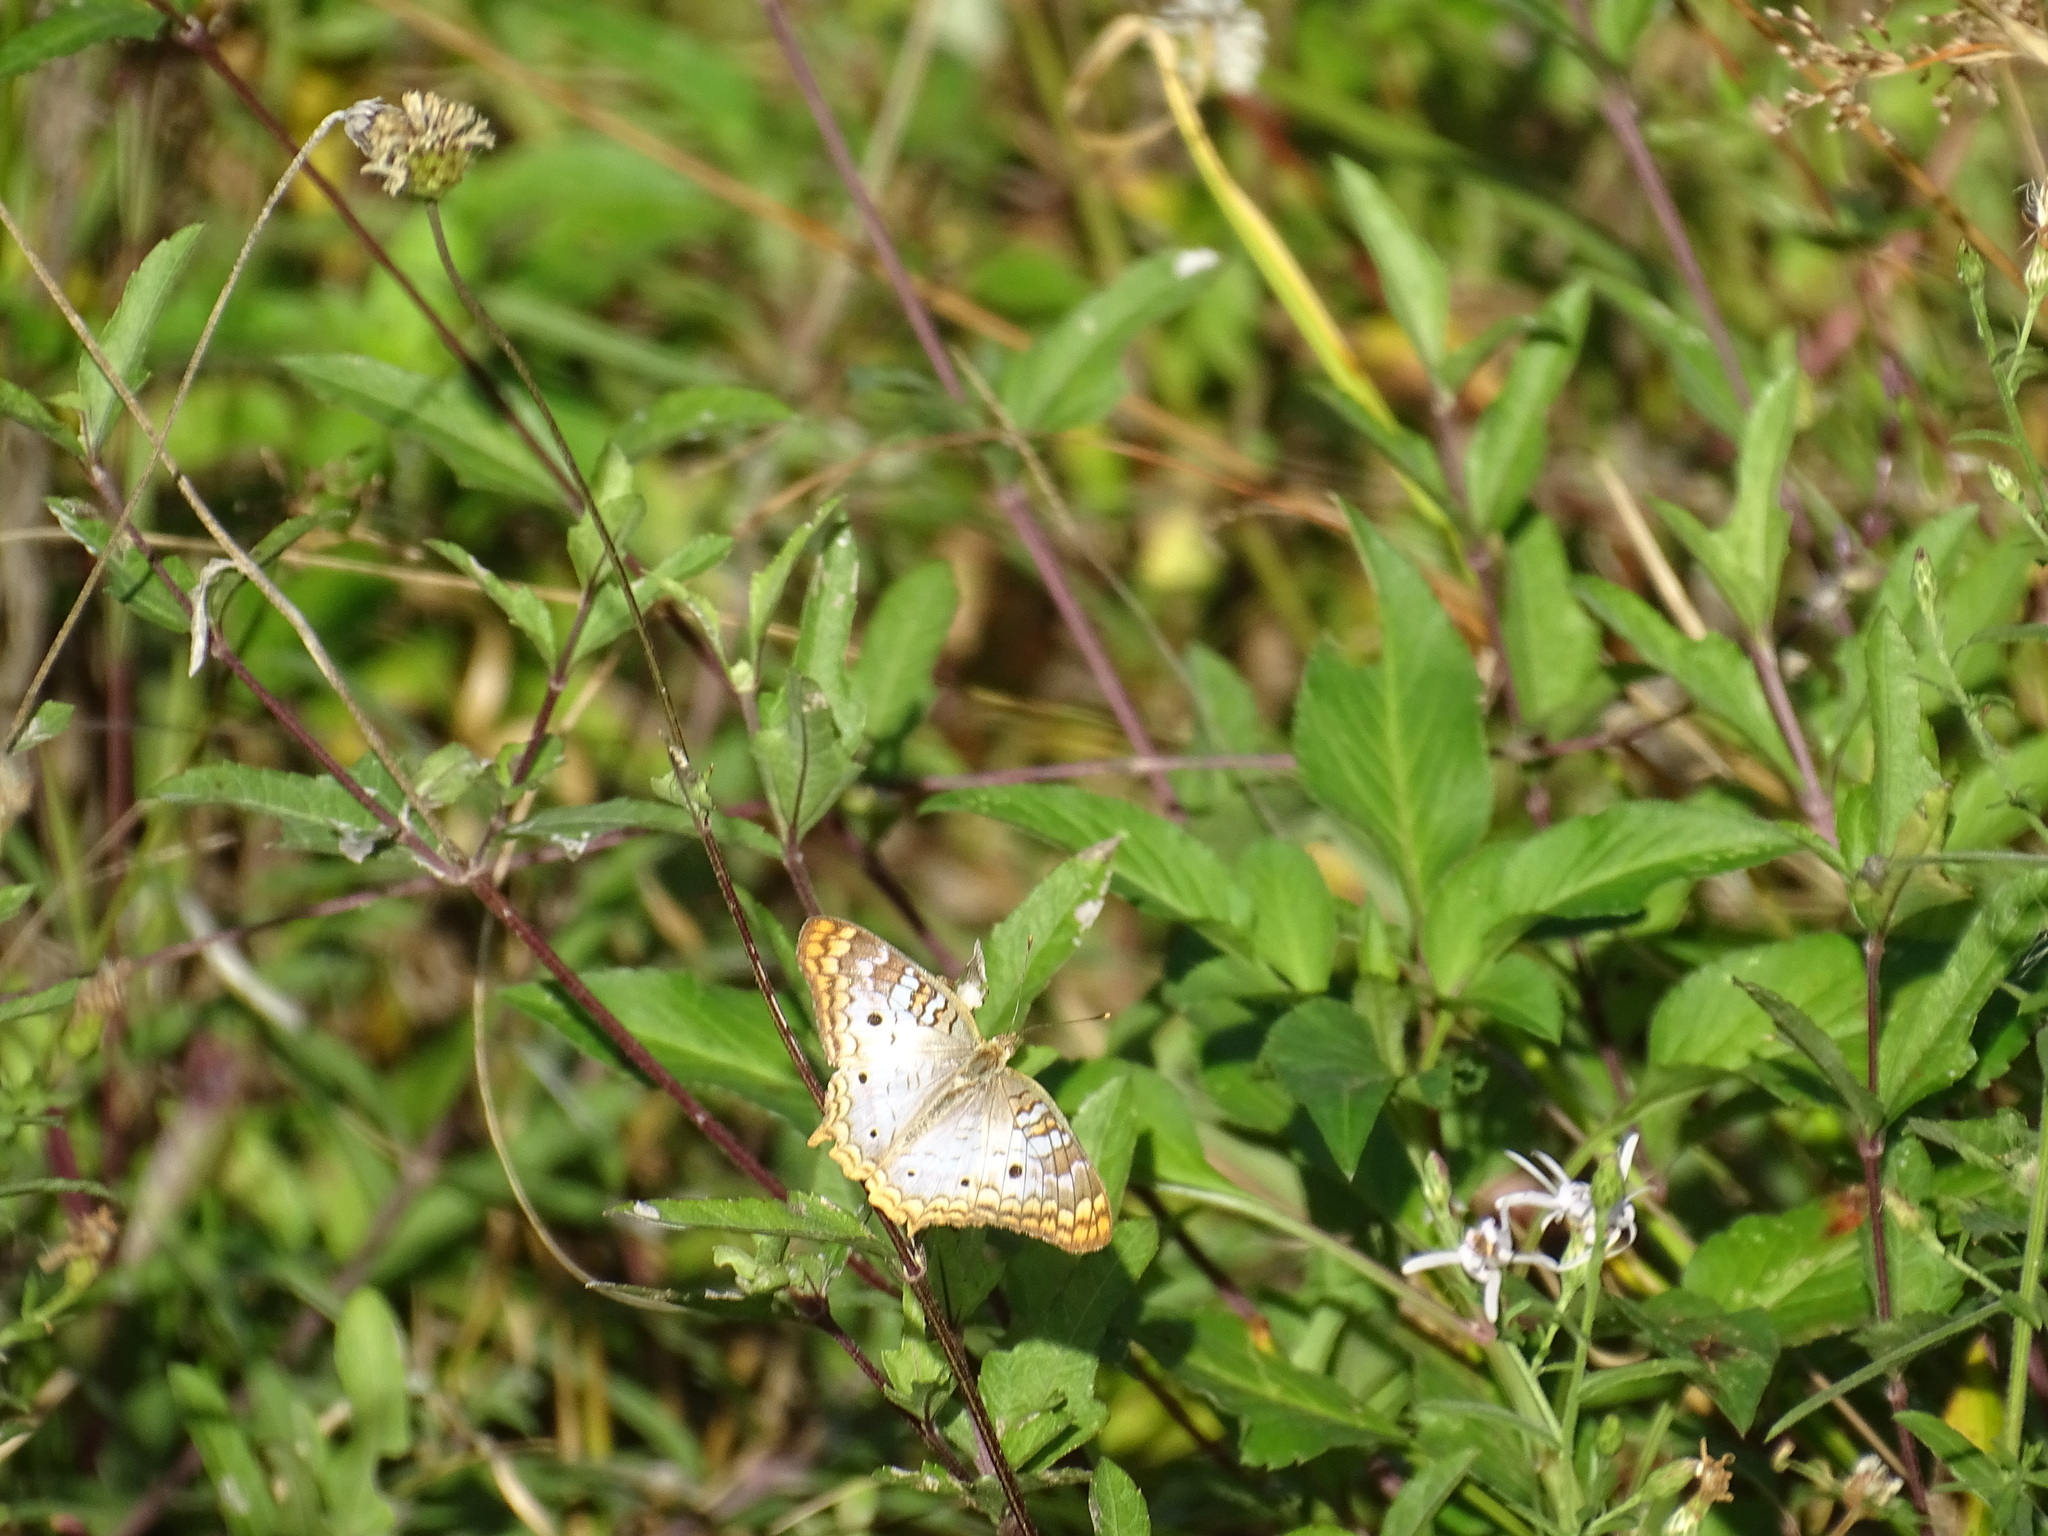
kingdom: Animalia
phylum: Arthropoda
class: Insecta
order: Lepidoptera
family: Nymphalidae
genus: Anartia
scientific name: Anartia jatrophae
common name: White peacock
